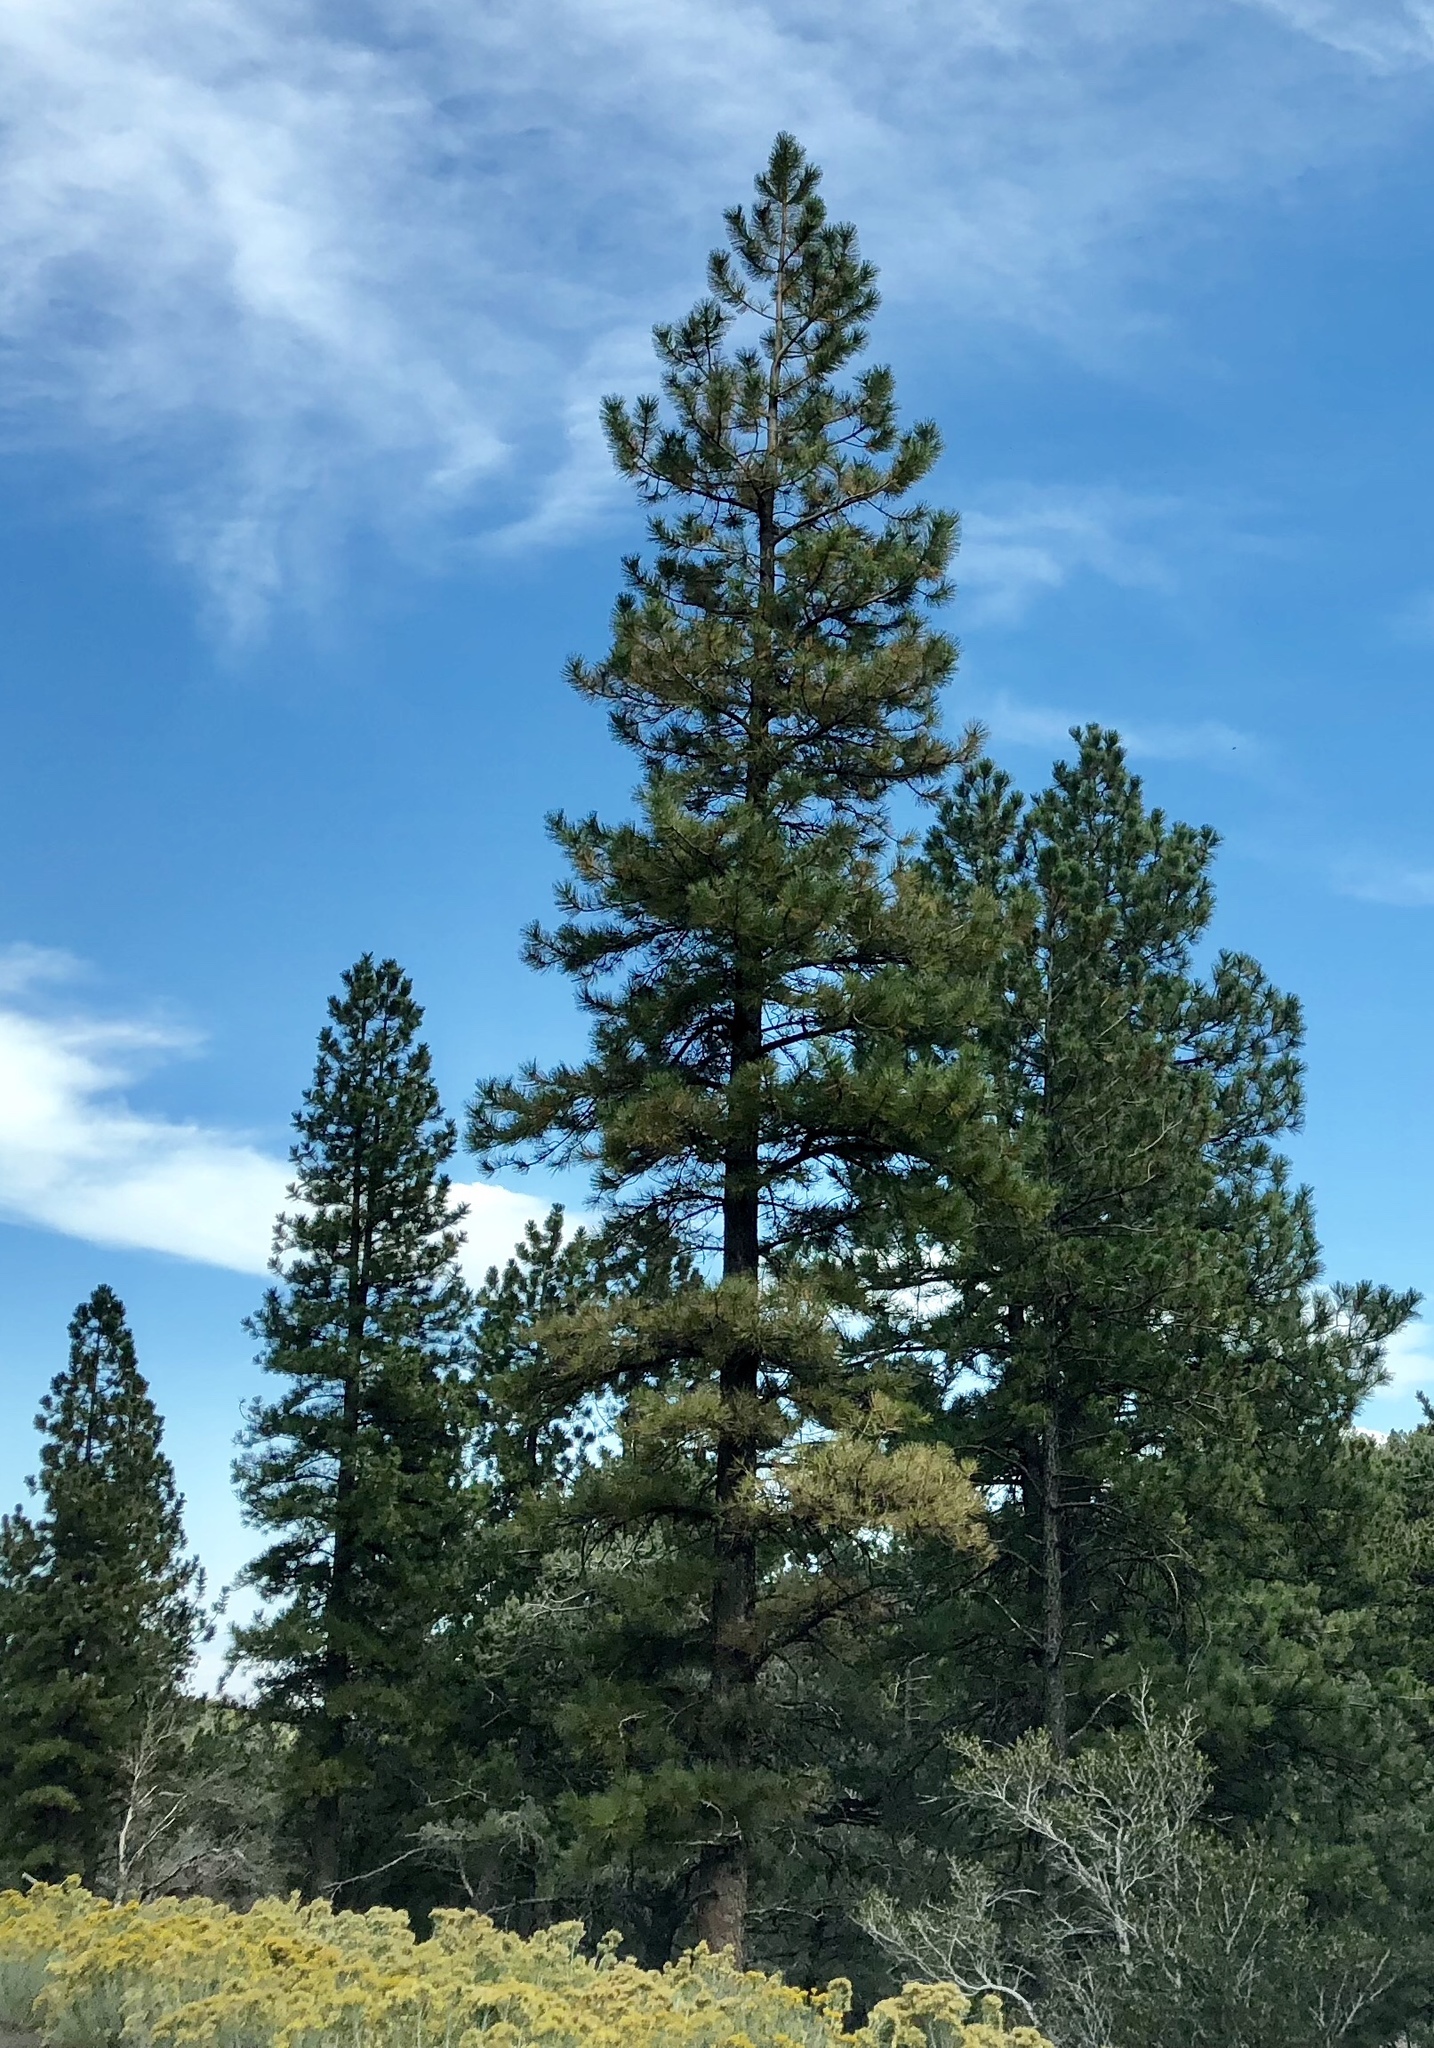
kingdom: Plantae
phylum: Tracheophyta
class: Pinopsida
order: Pinales
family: Pinaceae
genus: Pinus
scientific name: Pinus ponderosa
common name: Western yellow-pine
